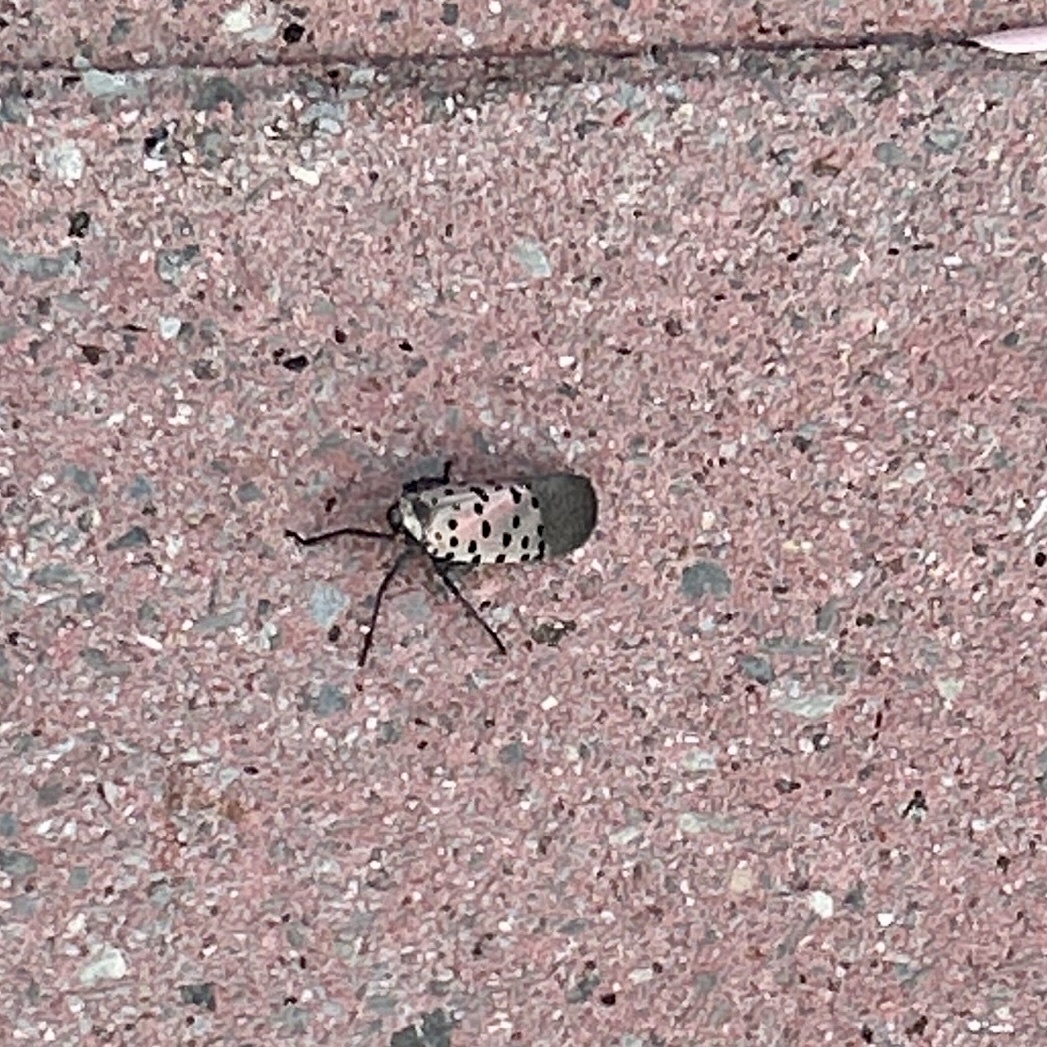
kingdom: Animalia
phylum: Arthropoda
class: Insecta
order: Hemiptera
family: Fulgoridae
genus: Lycorma
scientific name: Lycorma delicatula
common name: Spotted lanternfly
